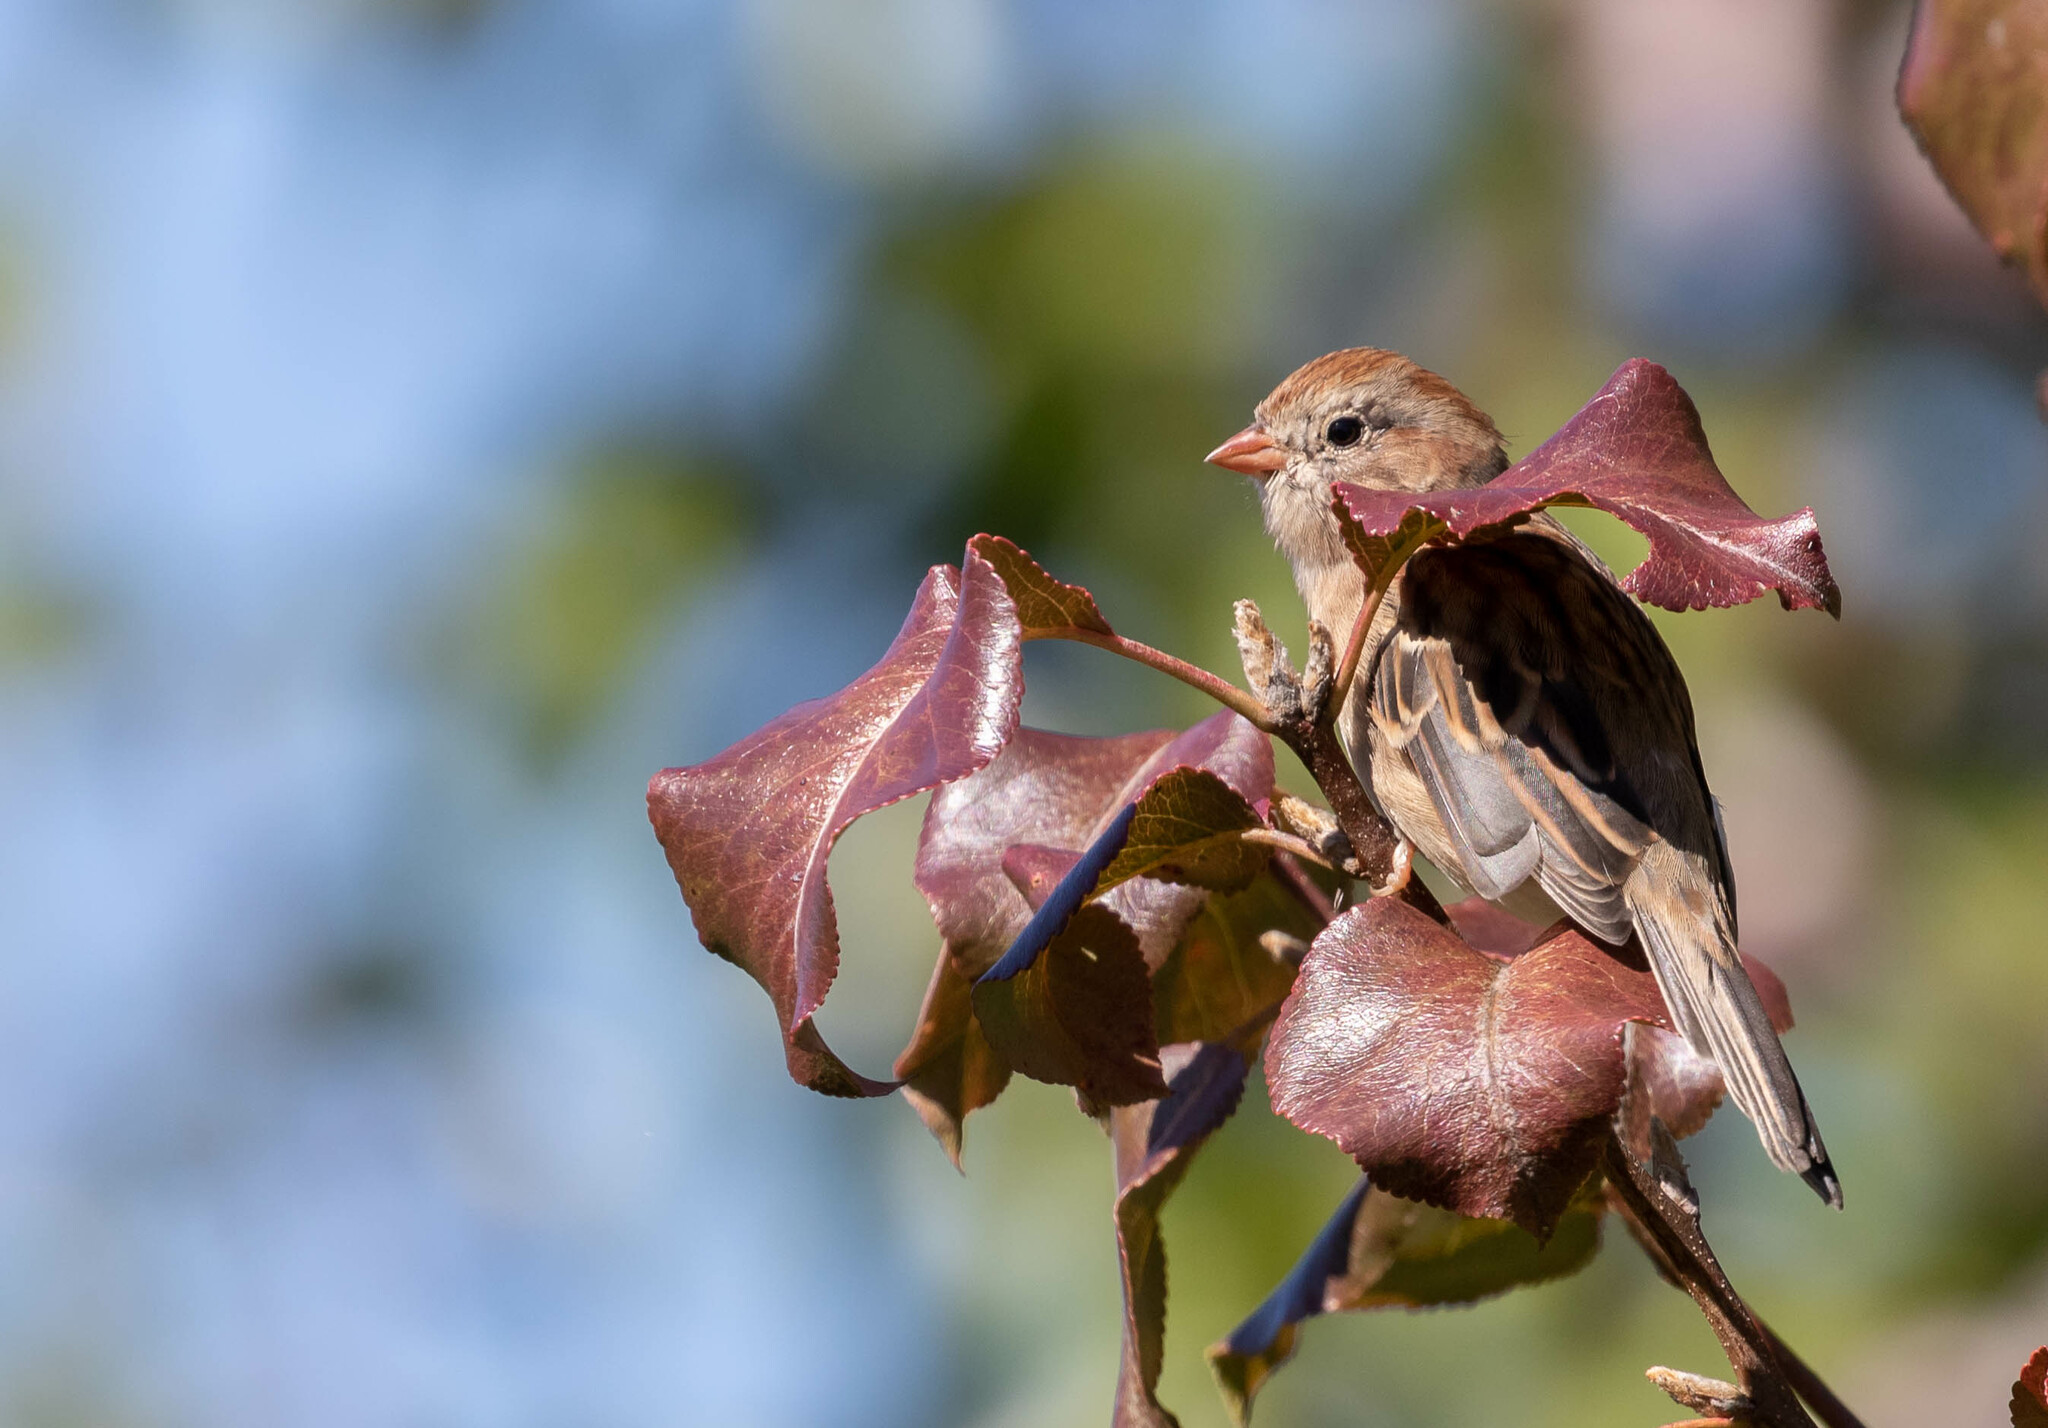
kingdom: Animalia
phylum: Chordata
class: Aves
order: Passeriformes
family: Passerellidae
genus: Spizella
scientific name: Spizella pusilla
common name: Field sparrow
